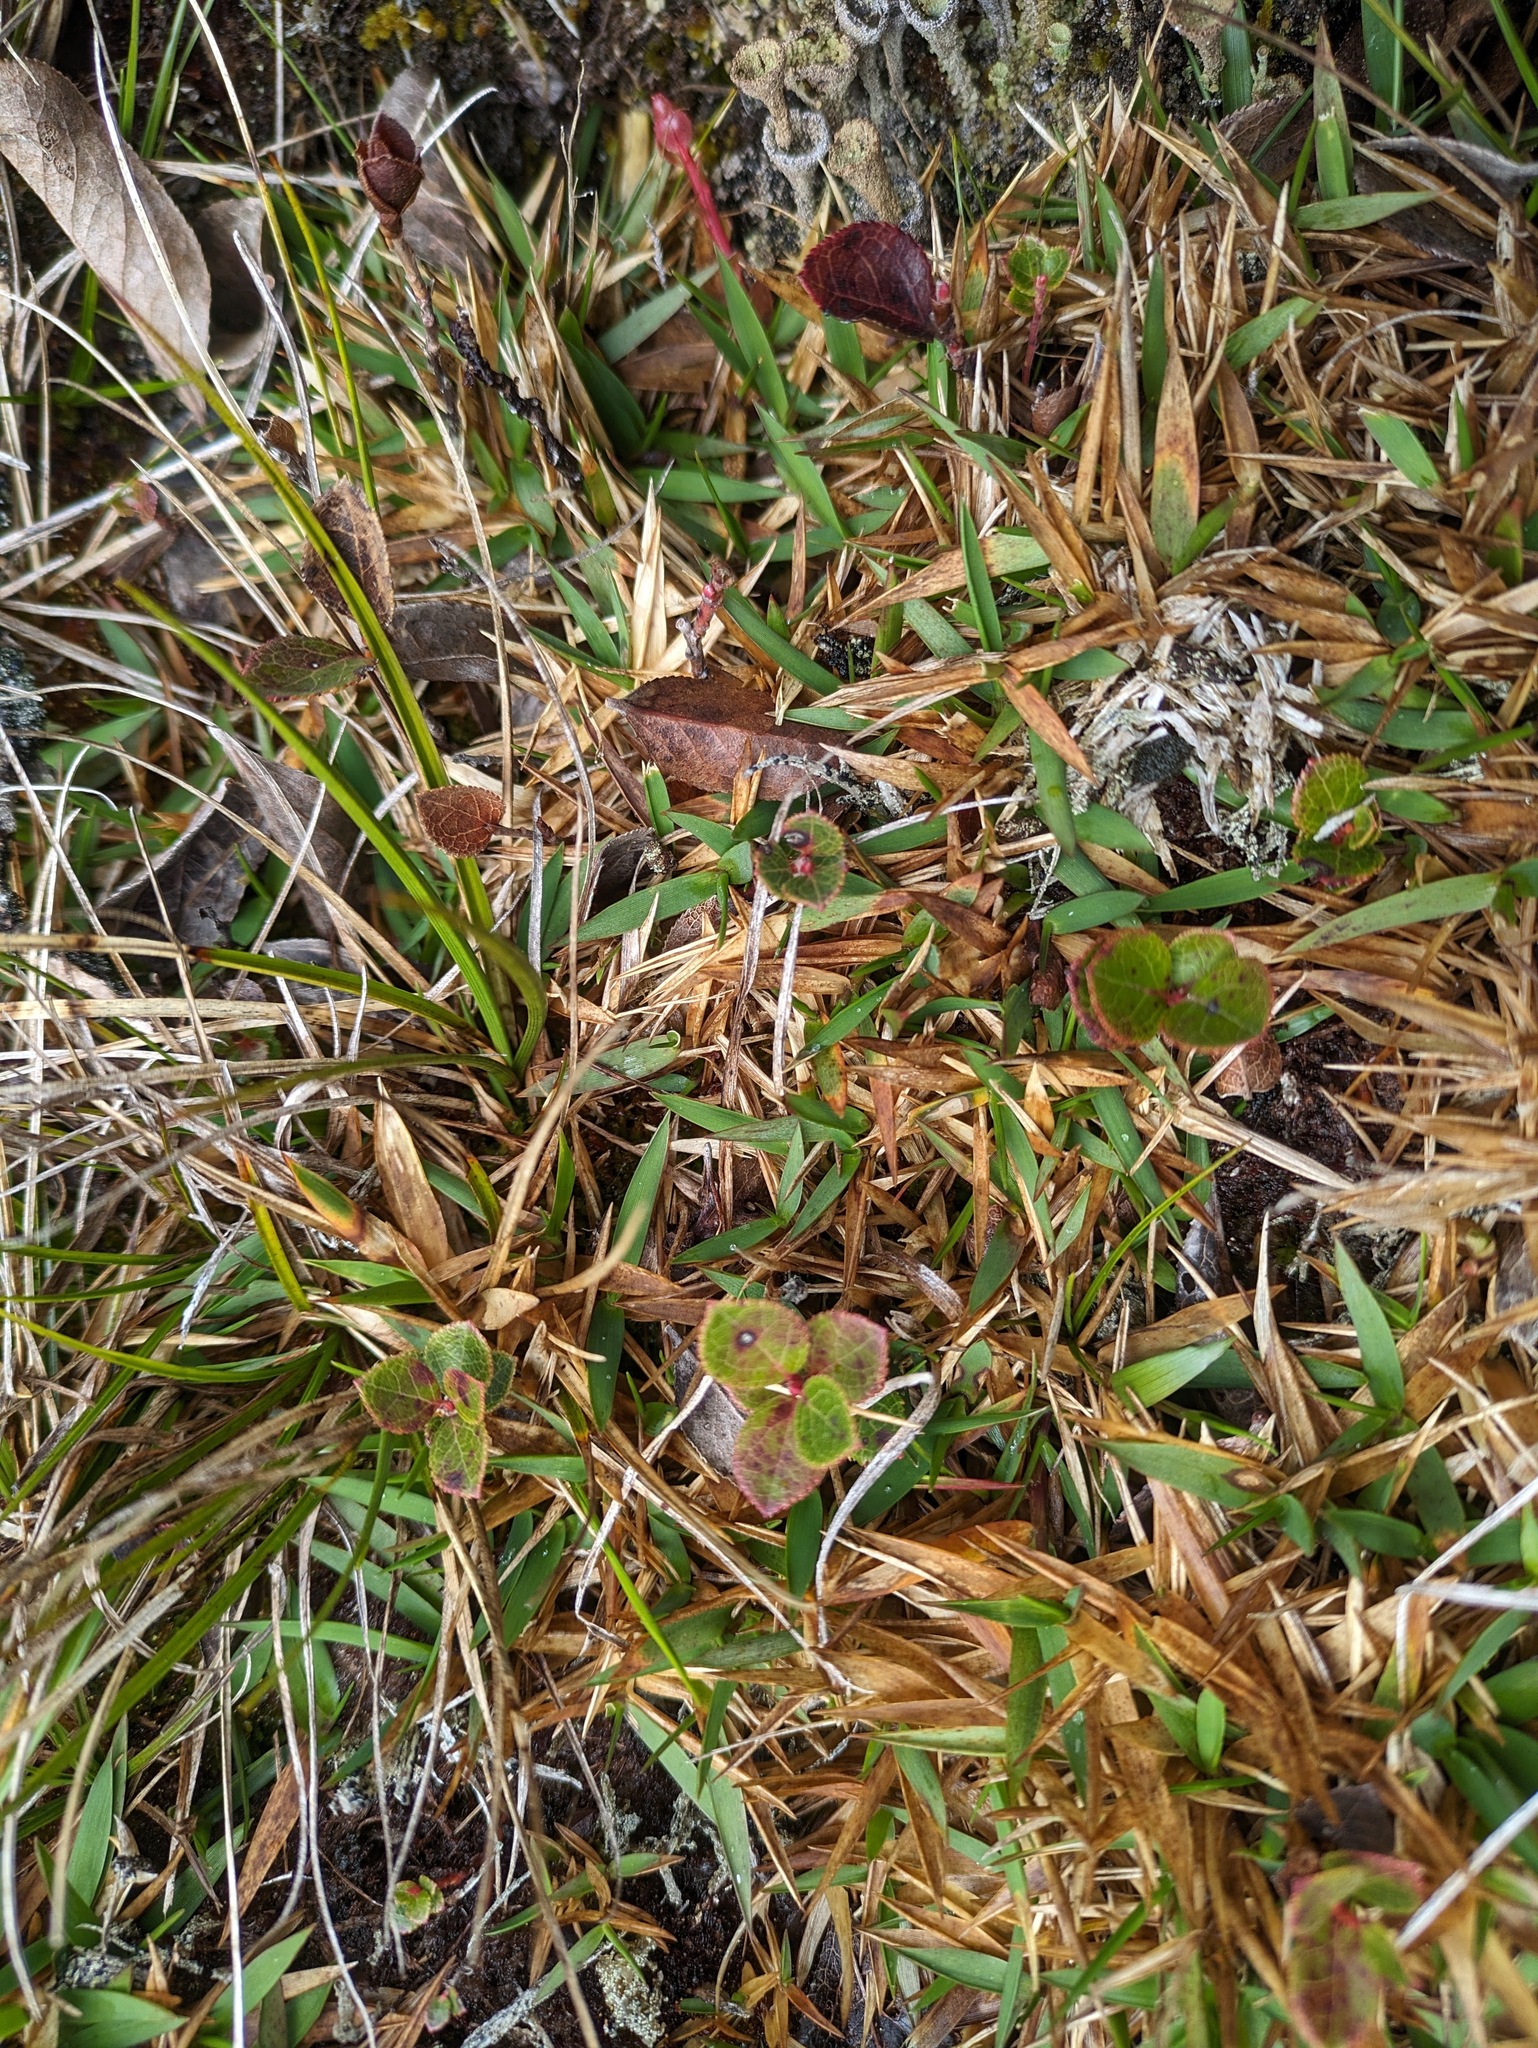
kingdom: Plantae
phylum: Tracheophyta
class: Liliopsida
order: Poales
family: Poaceae
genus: Dichanthelium
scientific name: Dichanthelium cynodon
